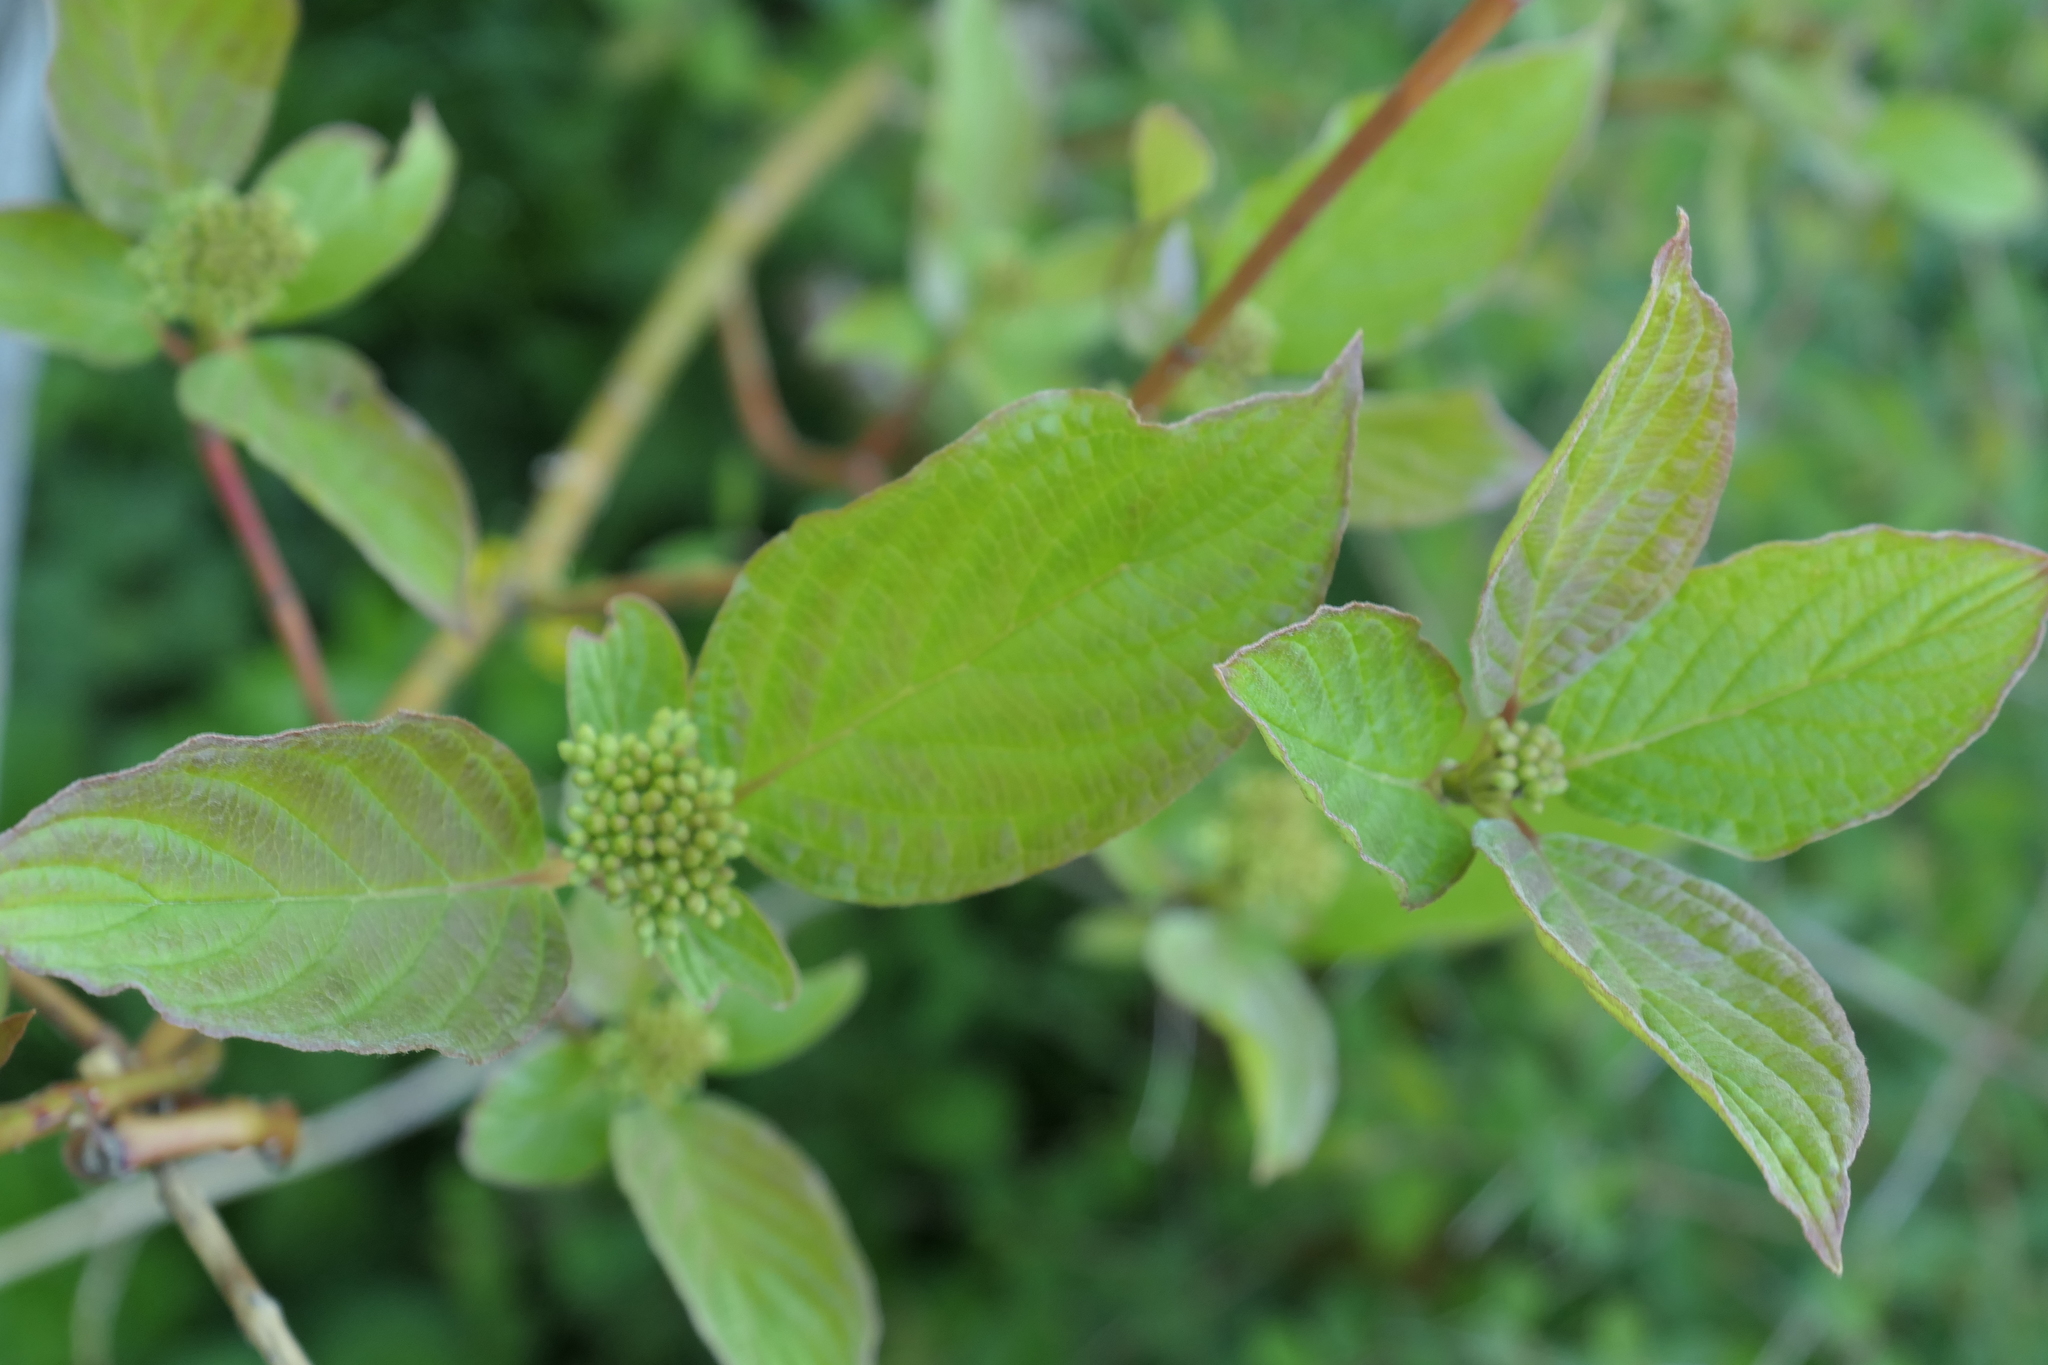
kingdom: Plantae
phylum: Tracheophyta
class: Magnoliopsida
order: Cornales
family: Cornaceae
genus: Cornus
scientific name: Cornus sericea
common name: Red-osier dogwood
